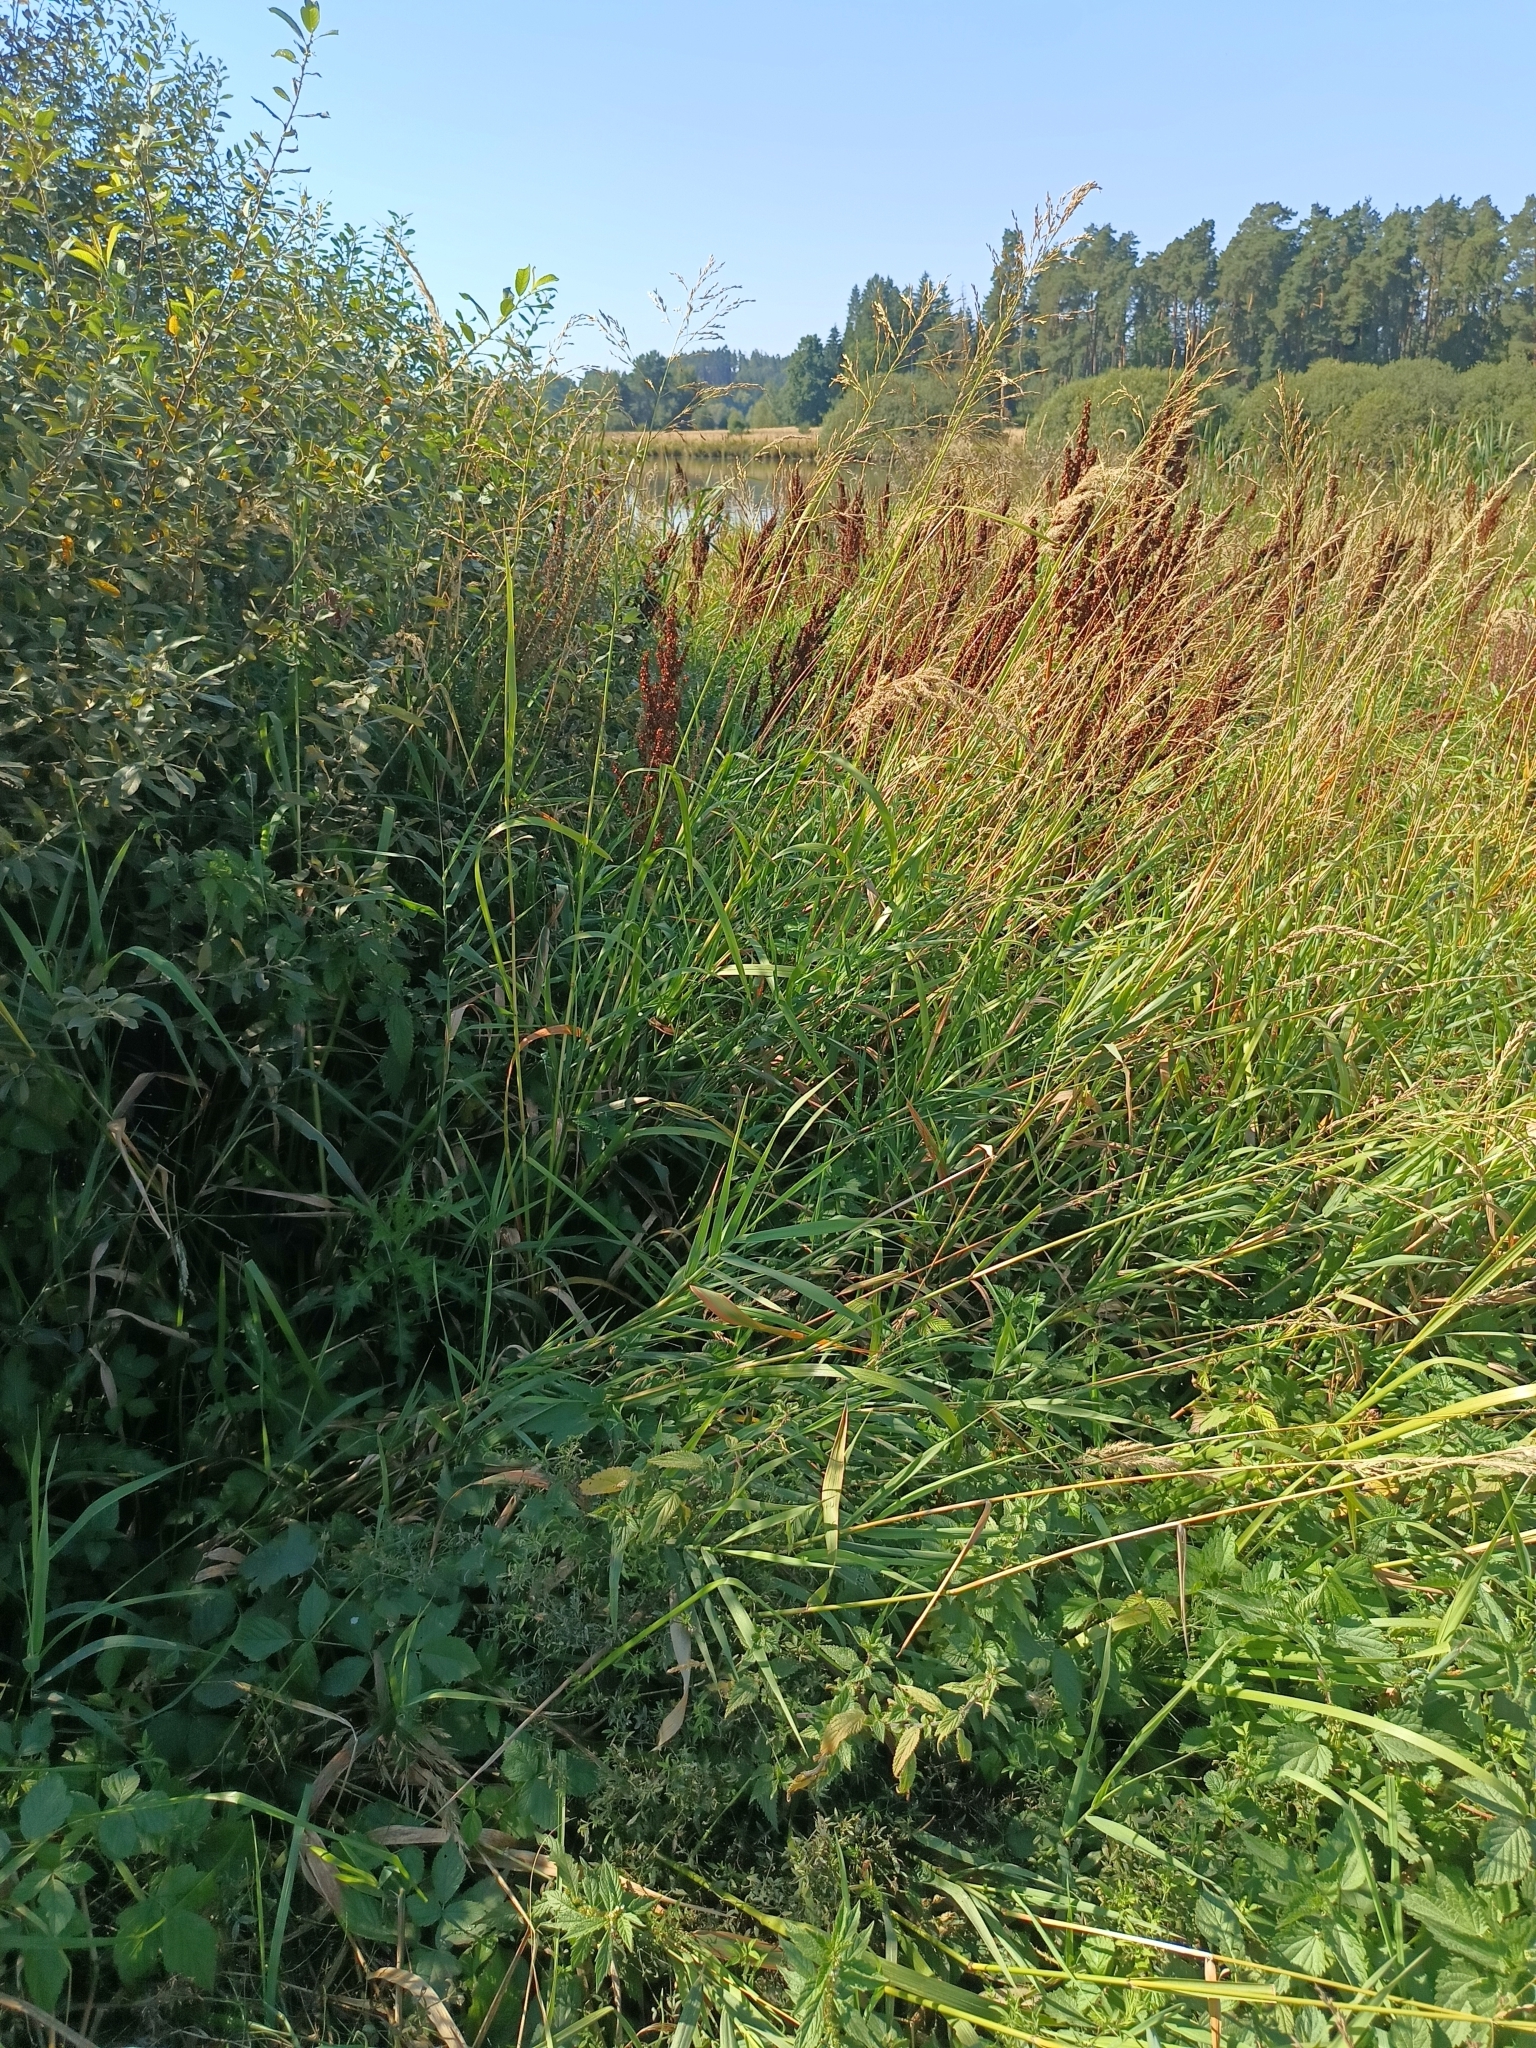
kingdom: Plantae
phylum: Tracheophyta
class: Liliopsida
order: Poales
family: Poaceae
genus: Glyceria
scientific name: Glyceria maxima
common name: Reed mannagrass
